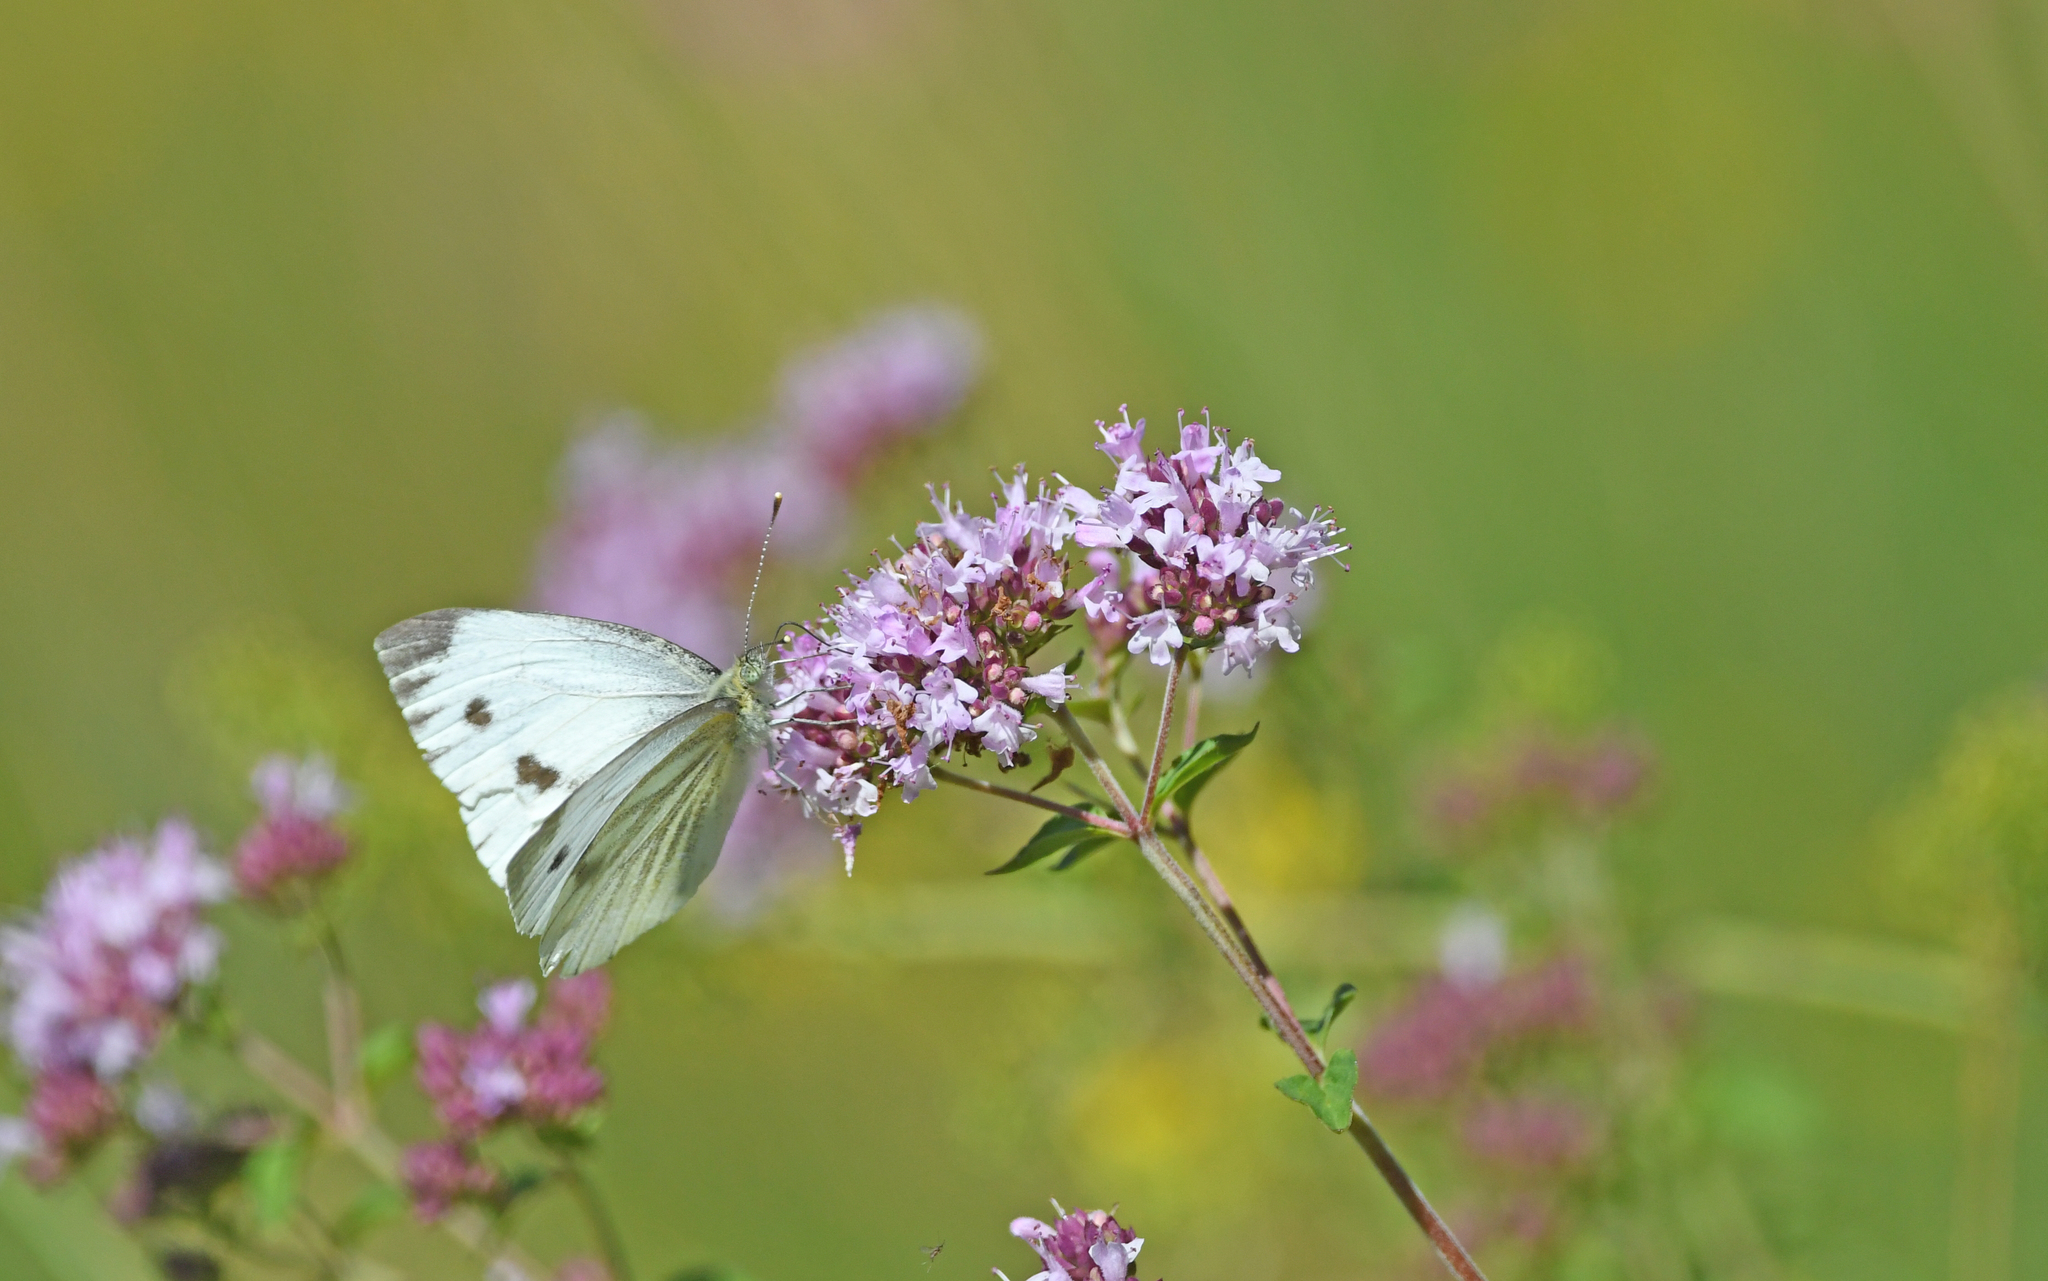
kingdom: Animalia
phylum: Arthropoda
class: Insecta
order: Lepidoptera
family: Pieridae
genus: Pieris
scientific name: Pieris napi
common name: Green-veined white
